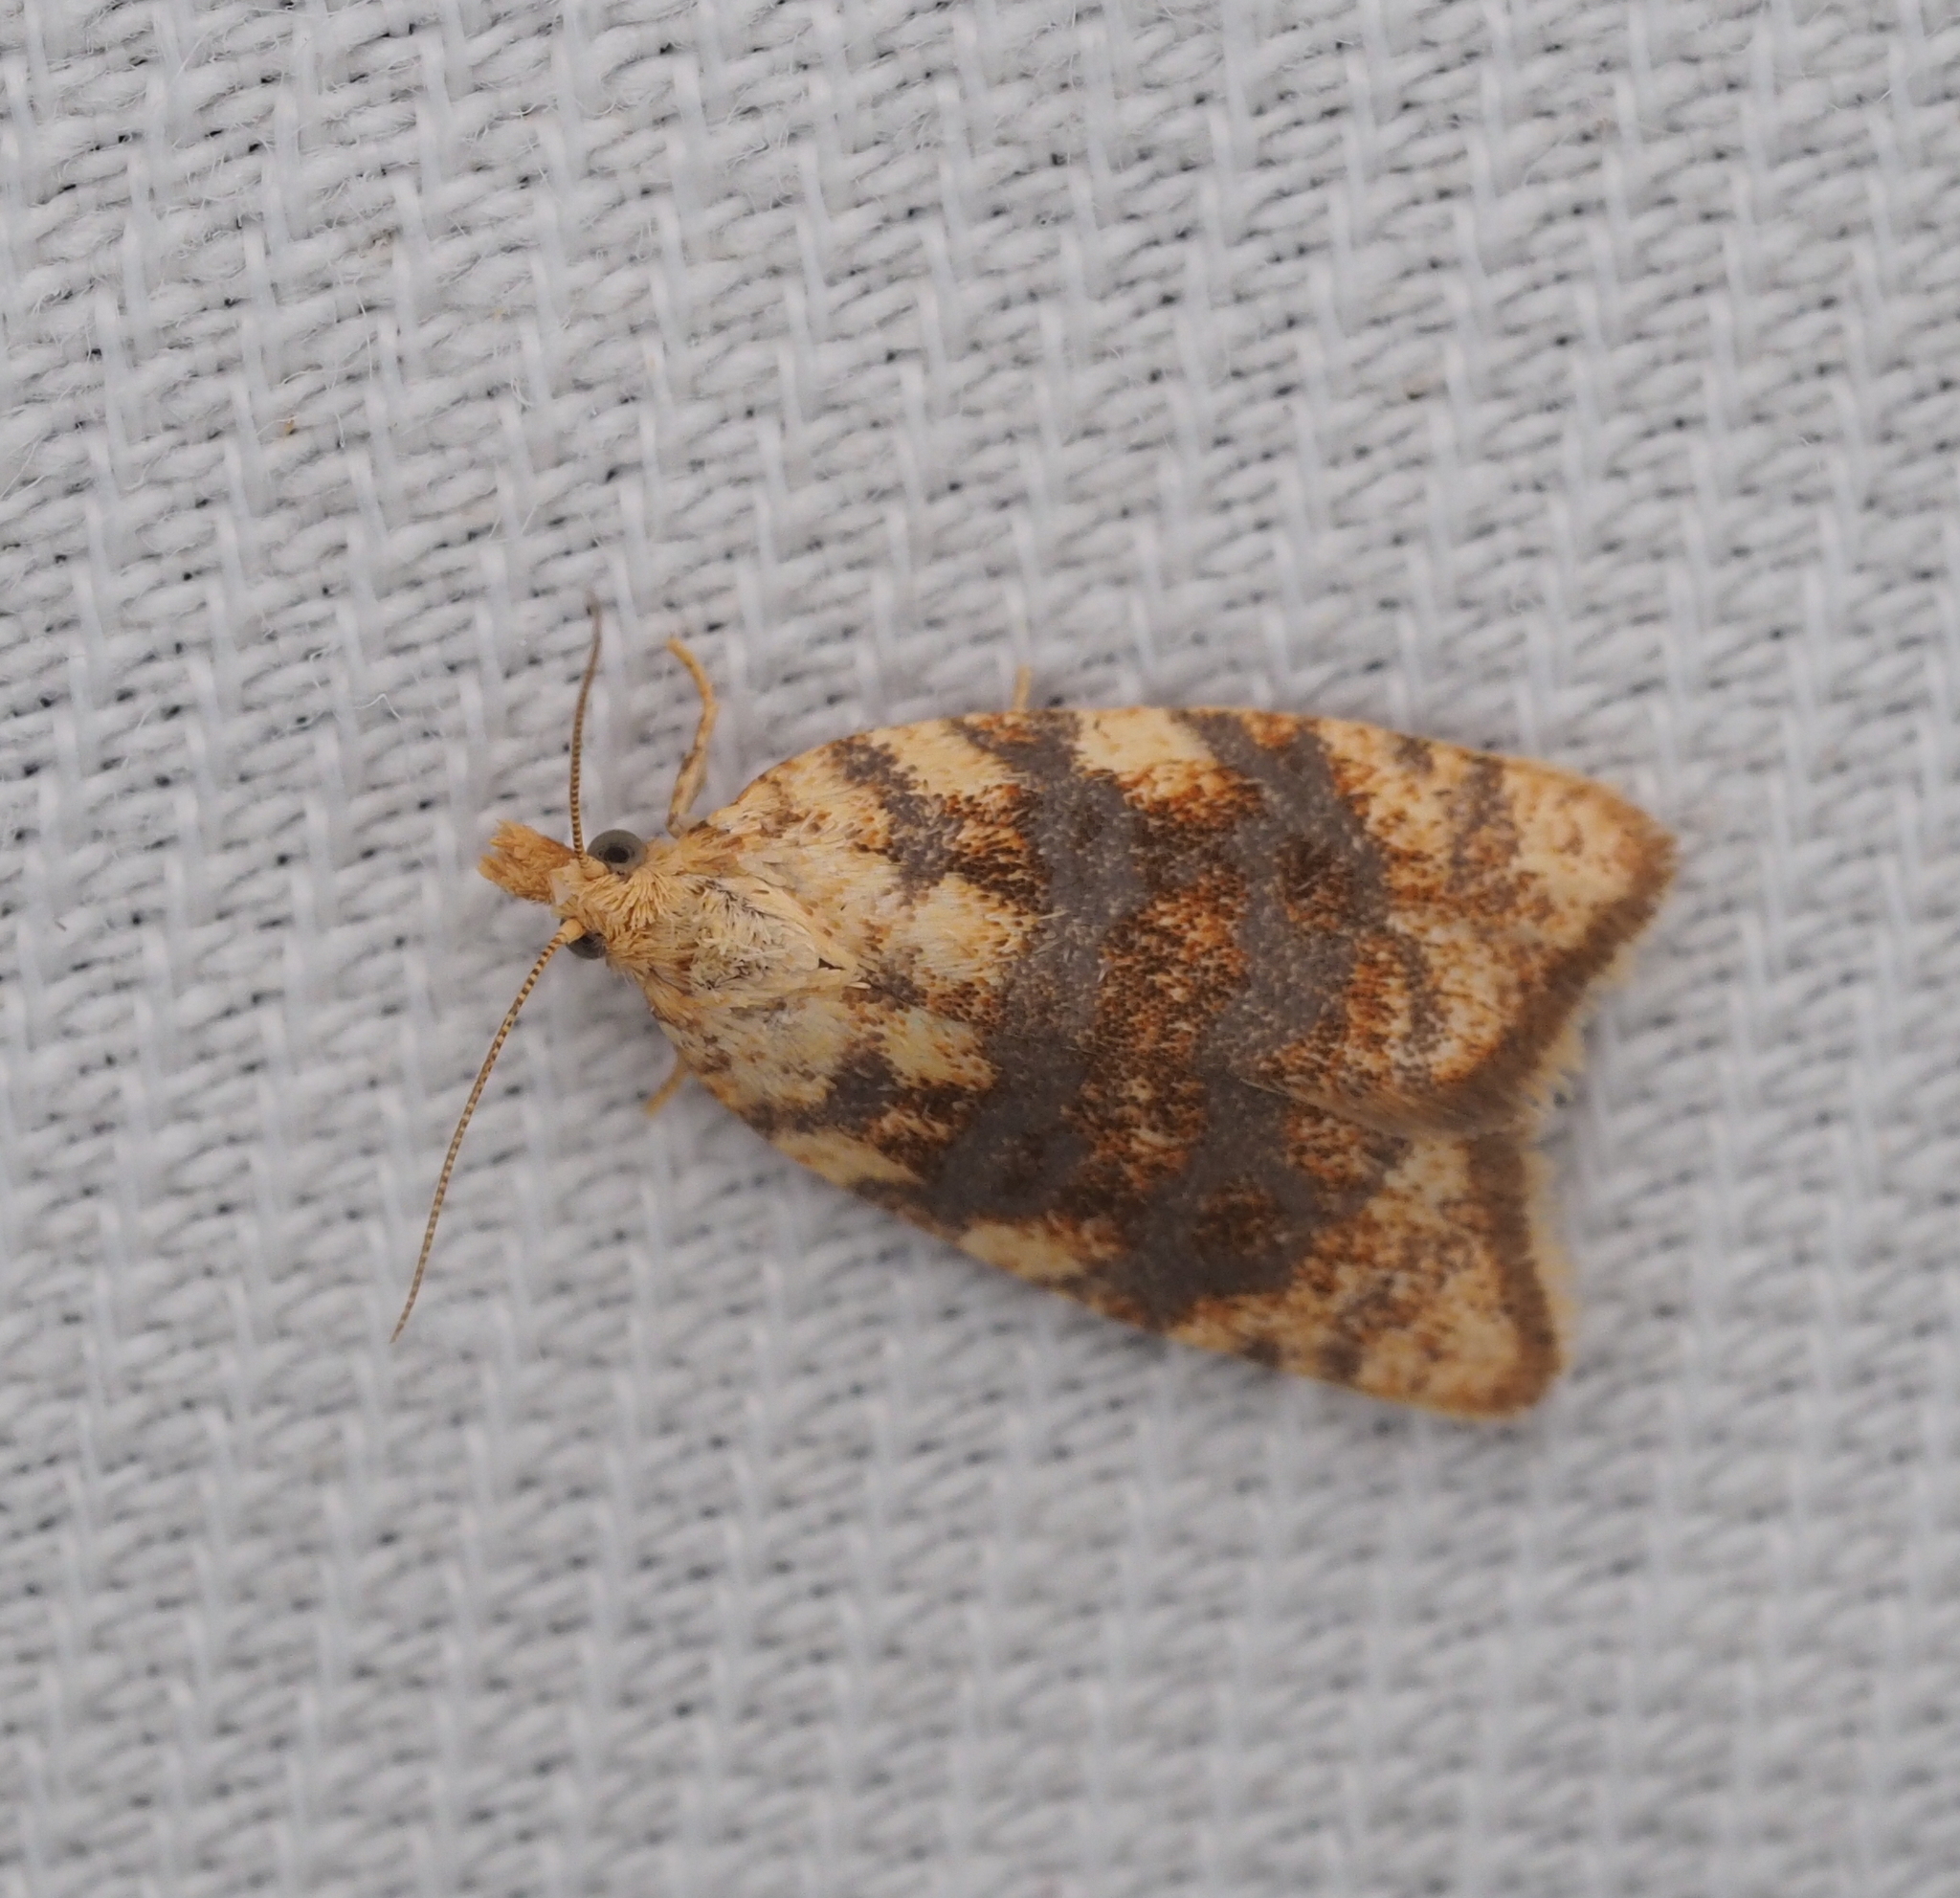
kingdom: Animalia
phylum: Arthropoda
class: Insecta
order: Lepidoptera
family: Tortricidae
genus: Aleimma
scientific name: Aleimma loeflingiana
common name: Yellow oak button
